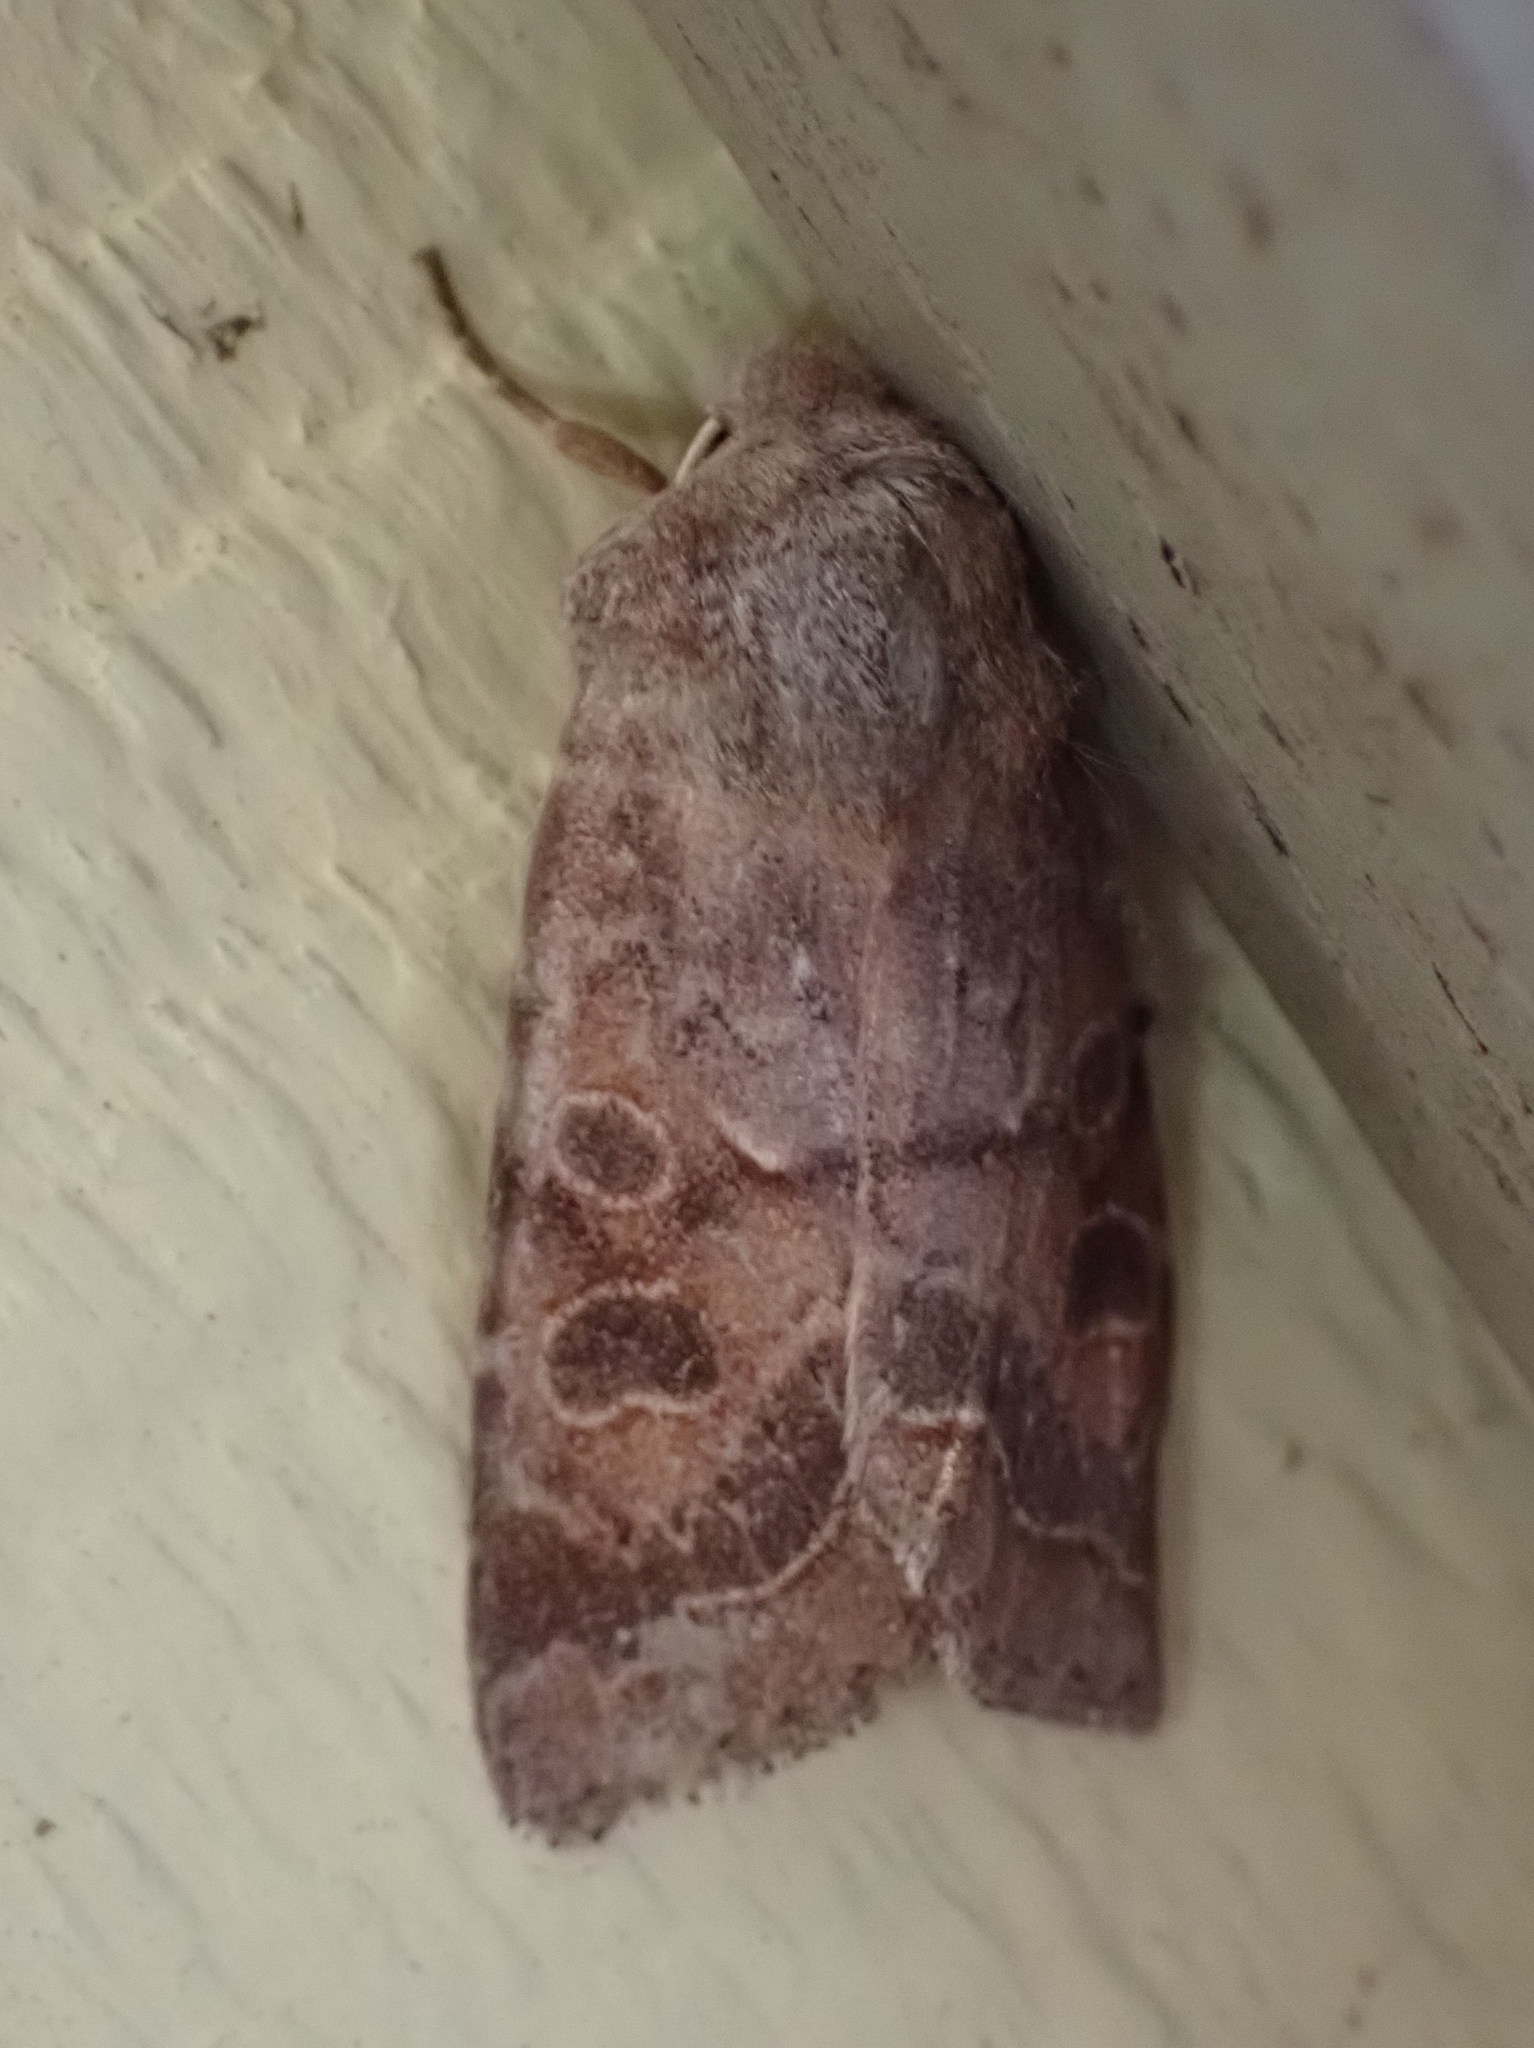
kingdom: Animalia
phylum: Arthropoda
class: Insecta
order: Lepidoptera
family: Noctuidae
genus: Orthosia
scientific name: Orthosia revicta
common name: Rusty whitesided caterpillar
